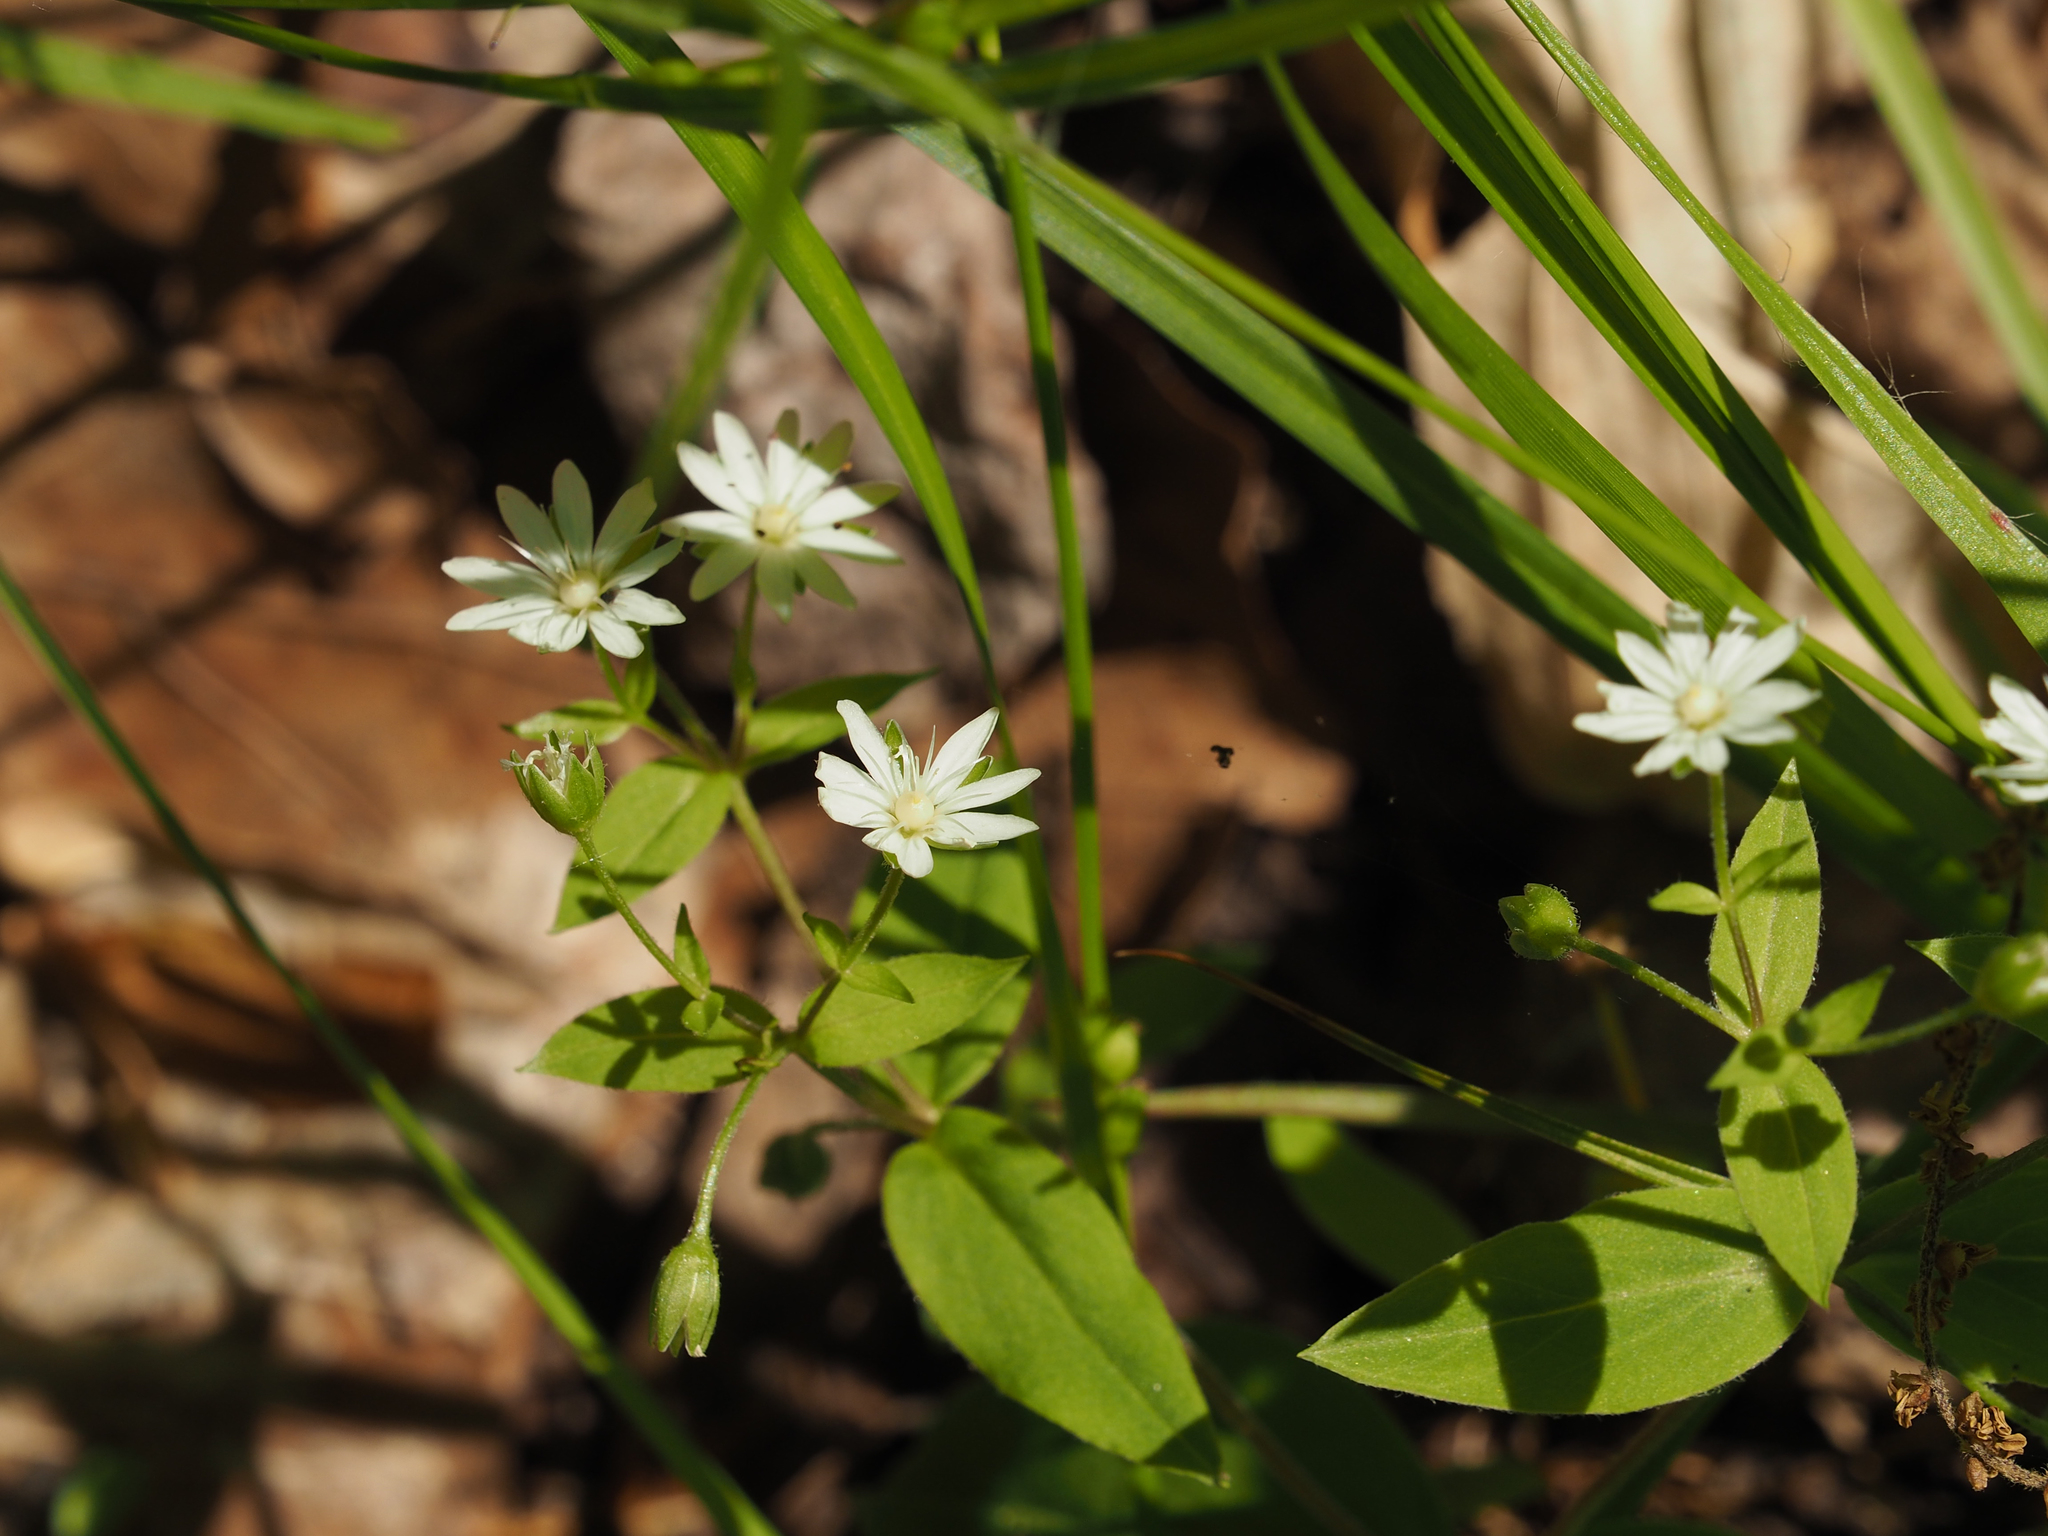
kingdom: Plantae
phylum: Tracheophyta
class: Magnoliopsida
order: Caryophyllales
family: Caryophyllaceae
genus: Stellaria
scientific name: Stellaria pubera
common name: Star chickweed
